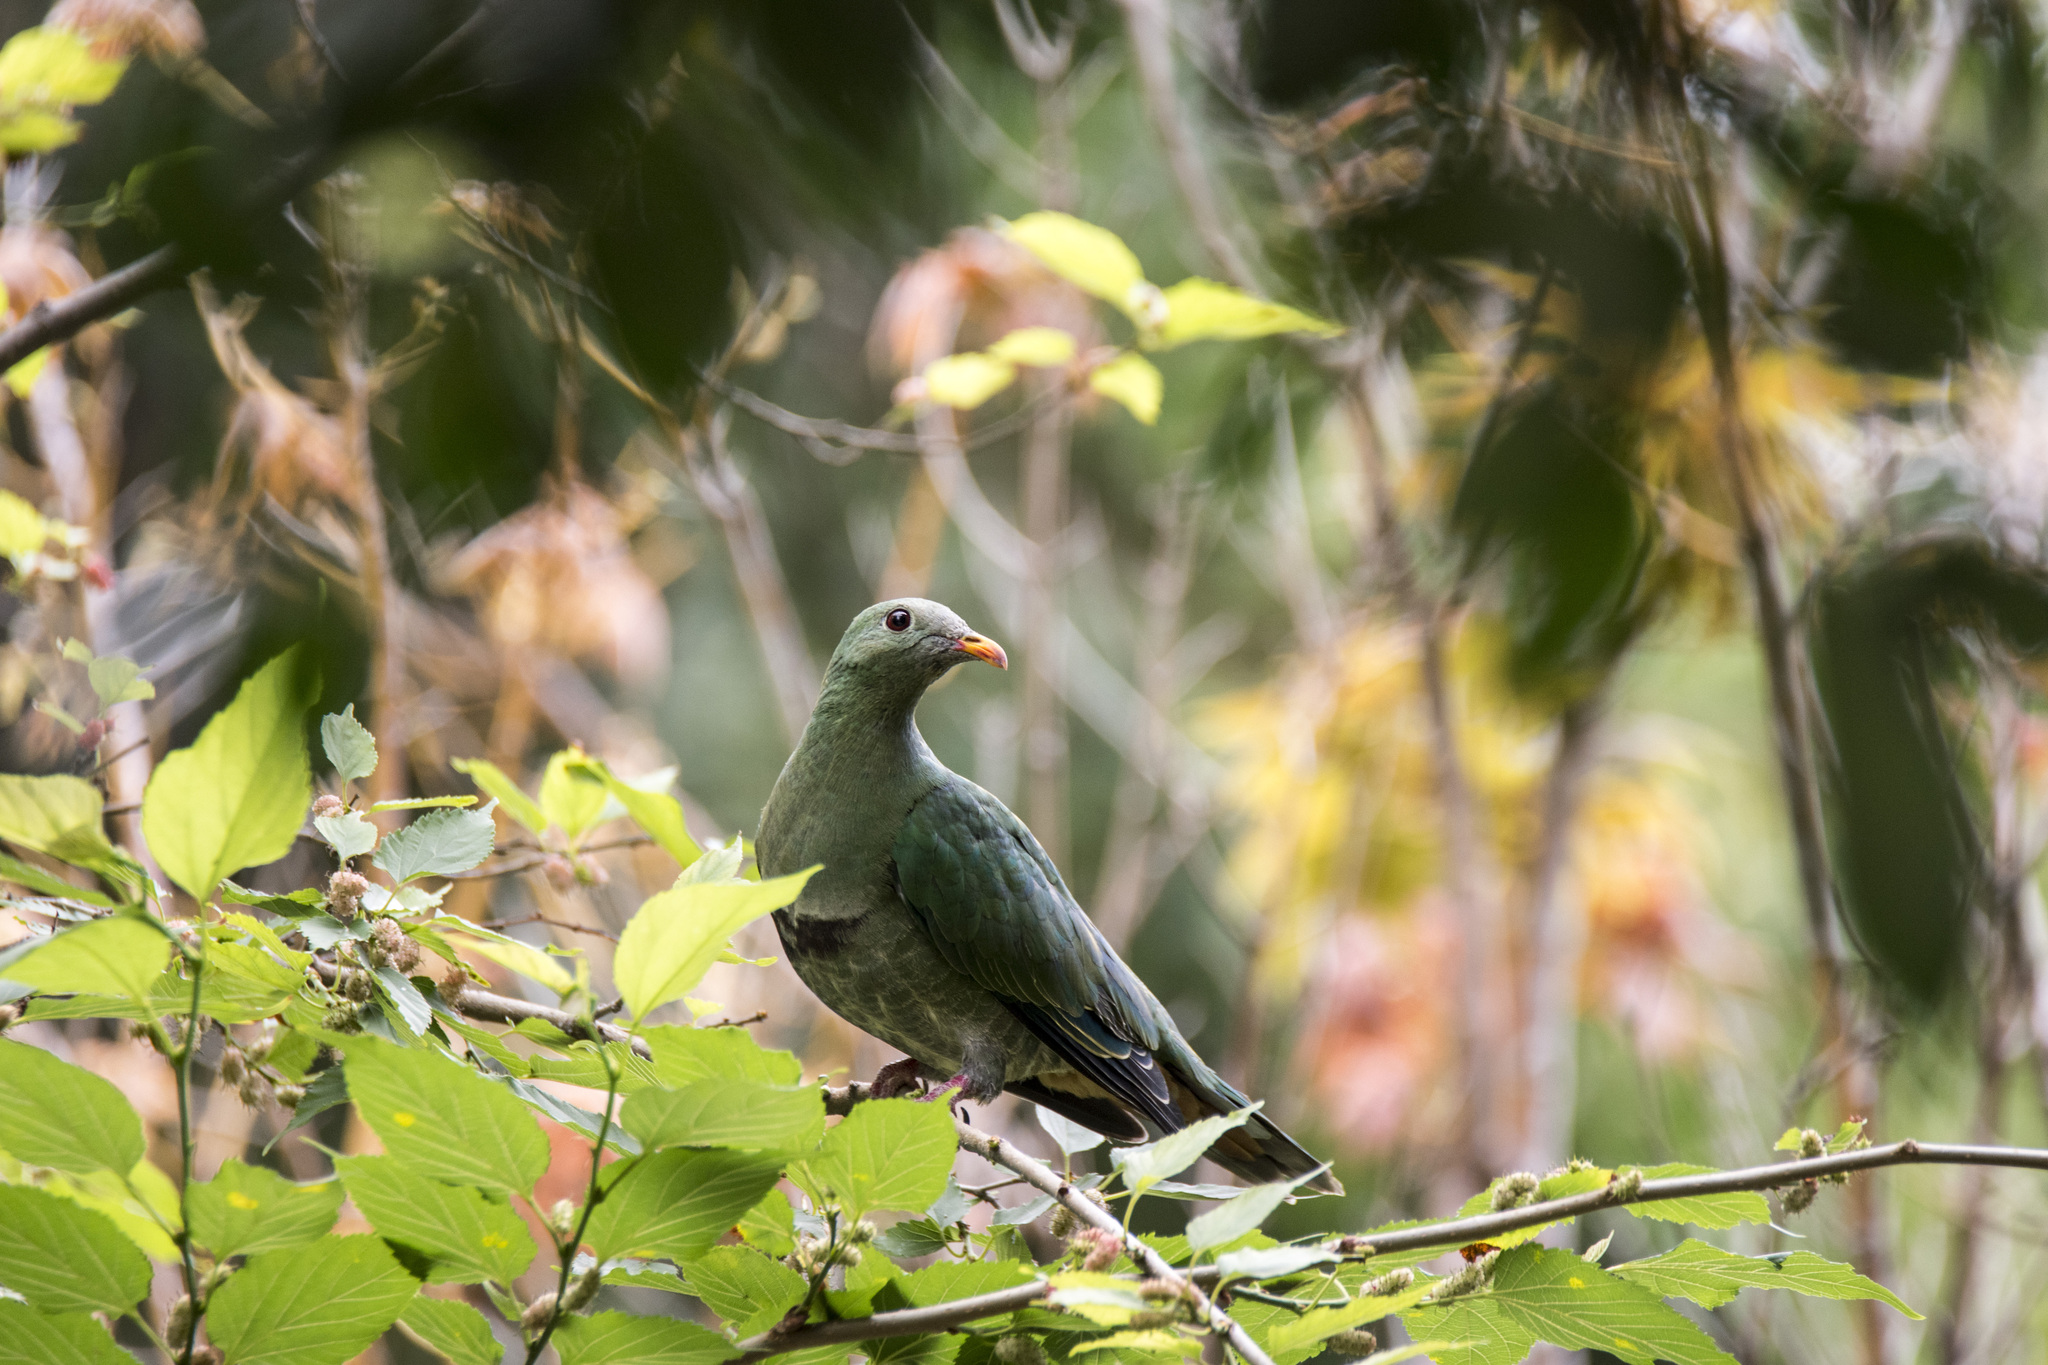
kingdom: Animalia
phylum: Chordata
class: Aves
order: Columbiformes
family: Columbidae
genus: Ptilinopus
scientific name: Ptilinopus leclancheri
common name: Black-chinned fruit dove
